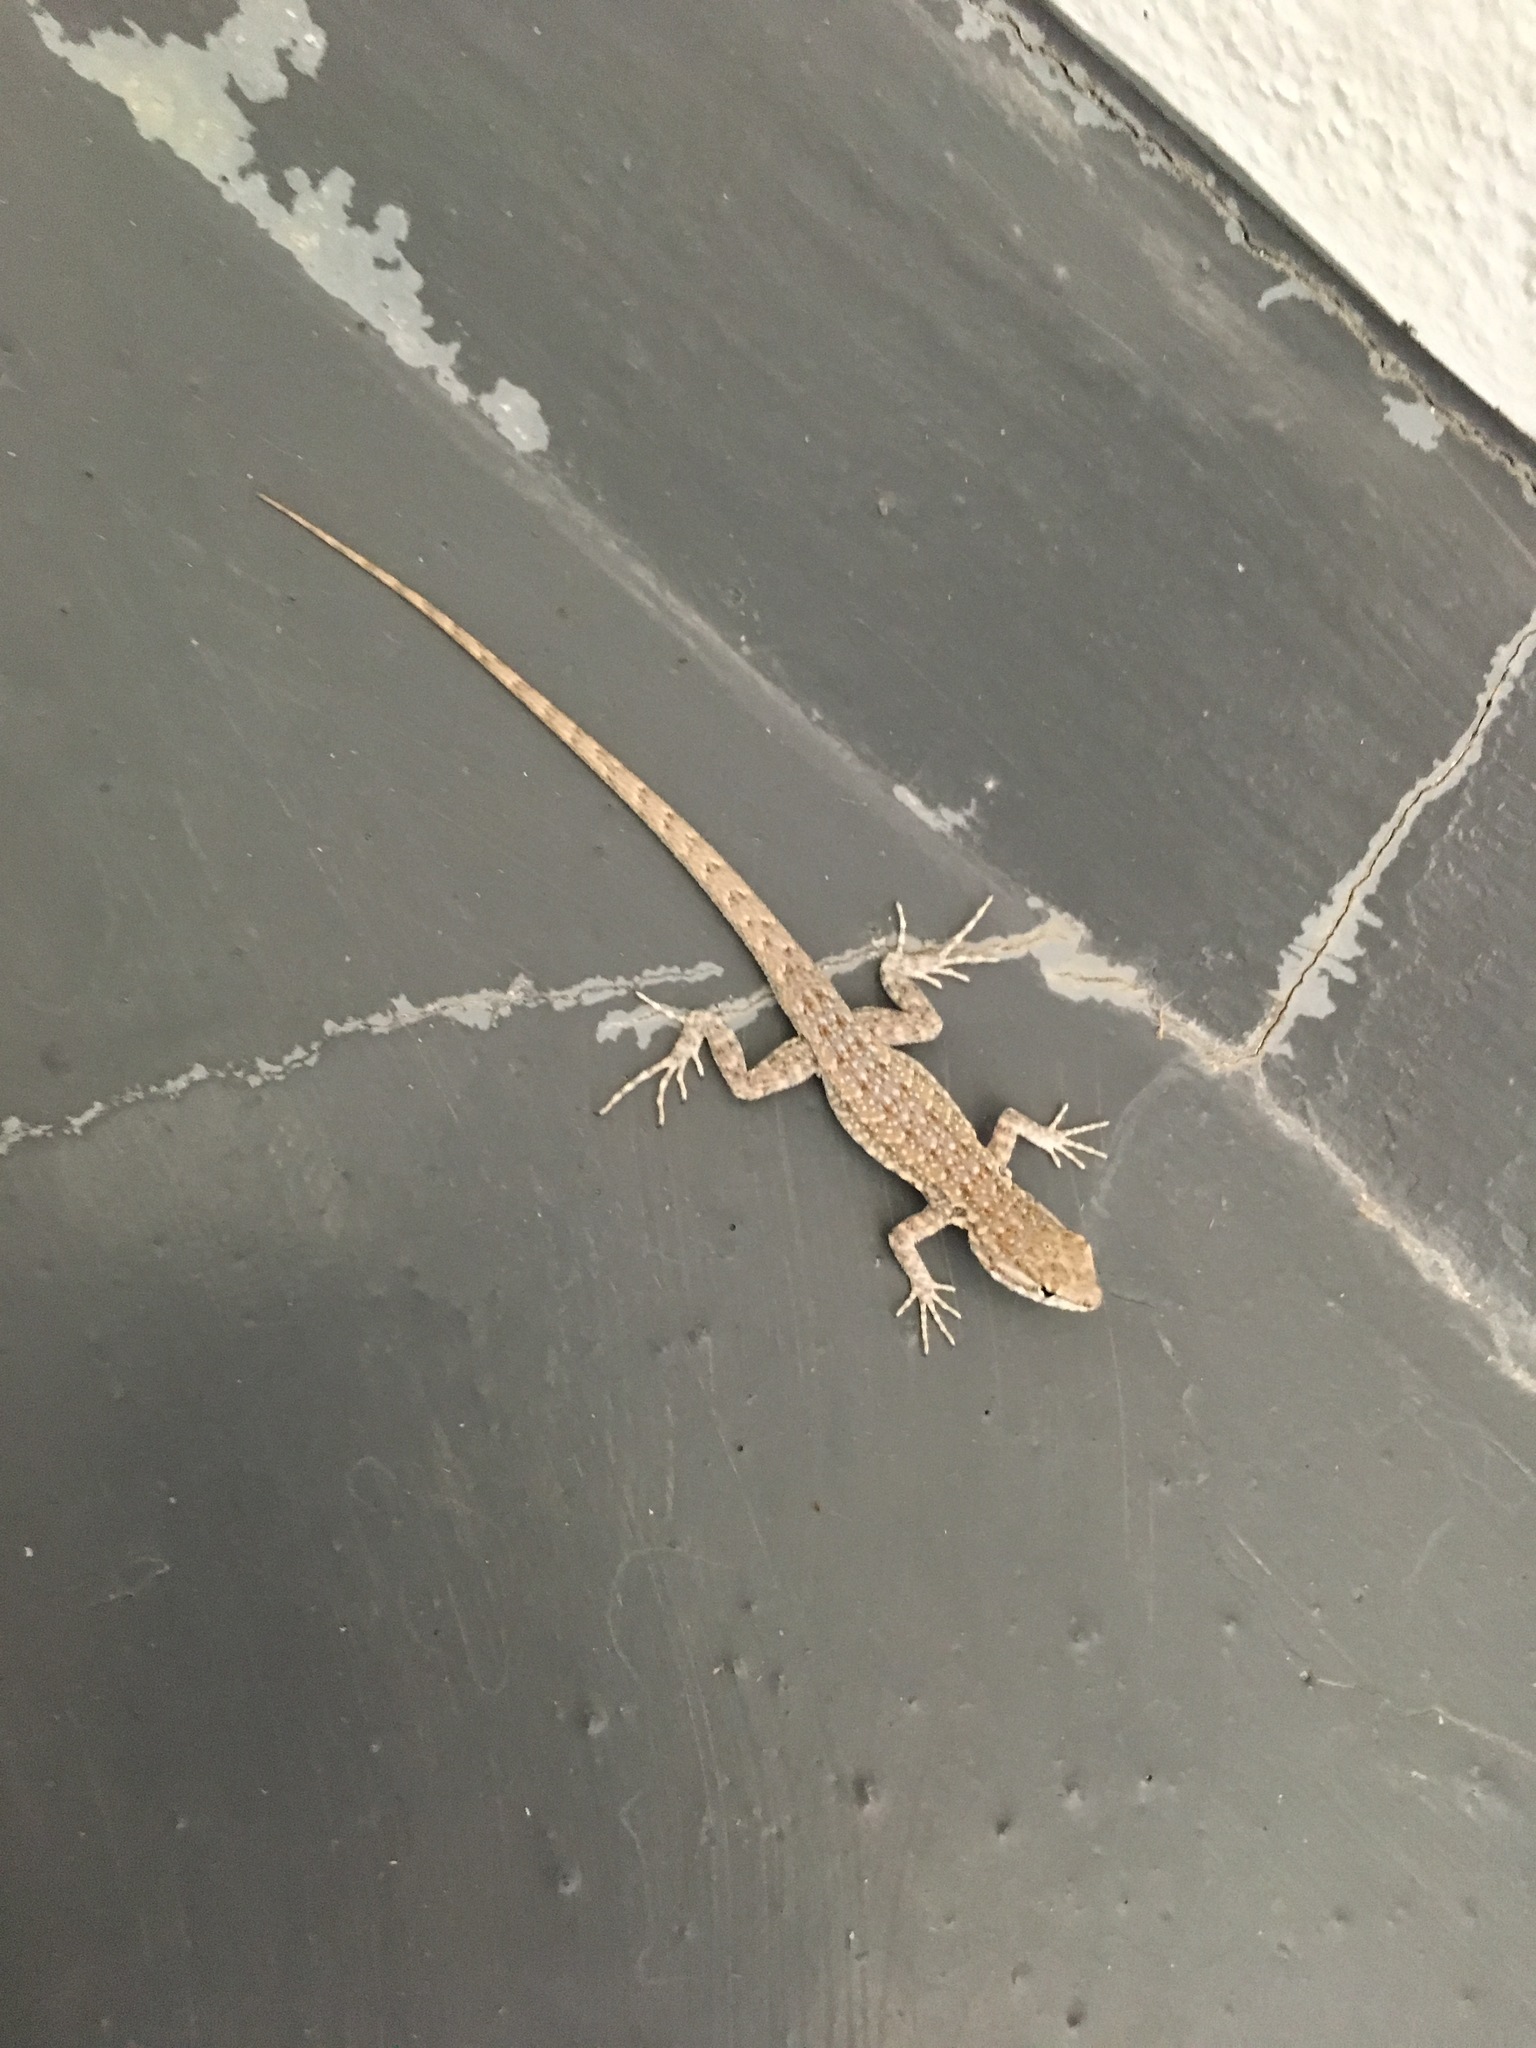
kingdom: Animalia
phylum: Chordata
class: Squamata
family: Phrynosomatidae
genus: Uta
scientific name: Uta stansburiana
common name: Side-blotched lizard
